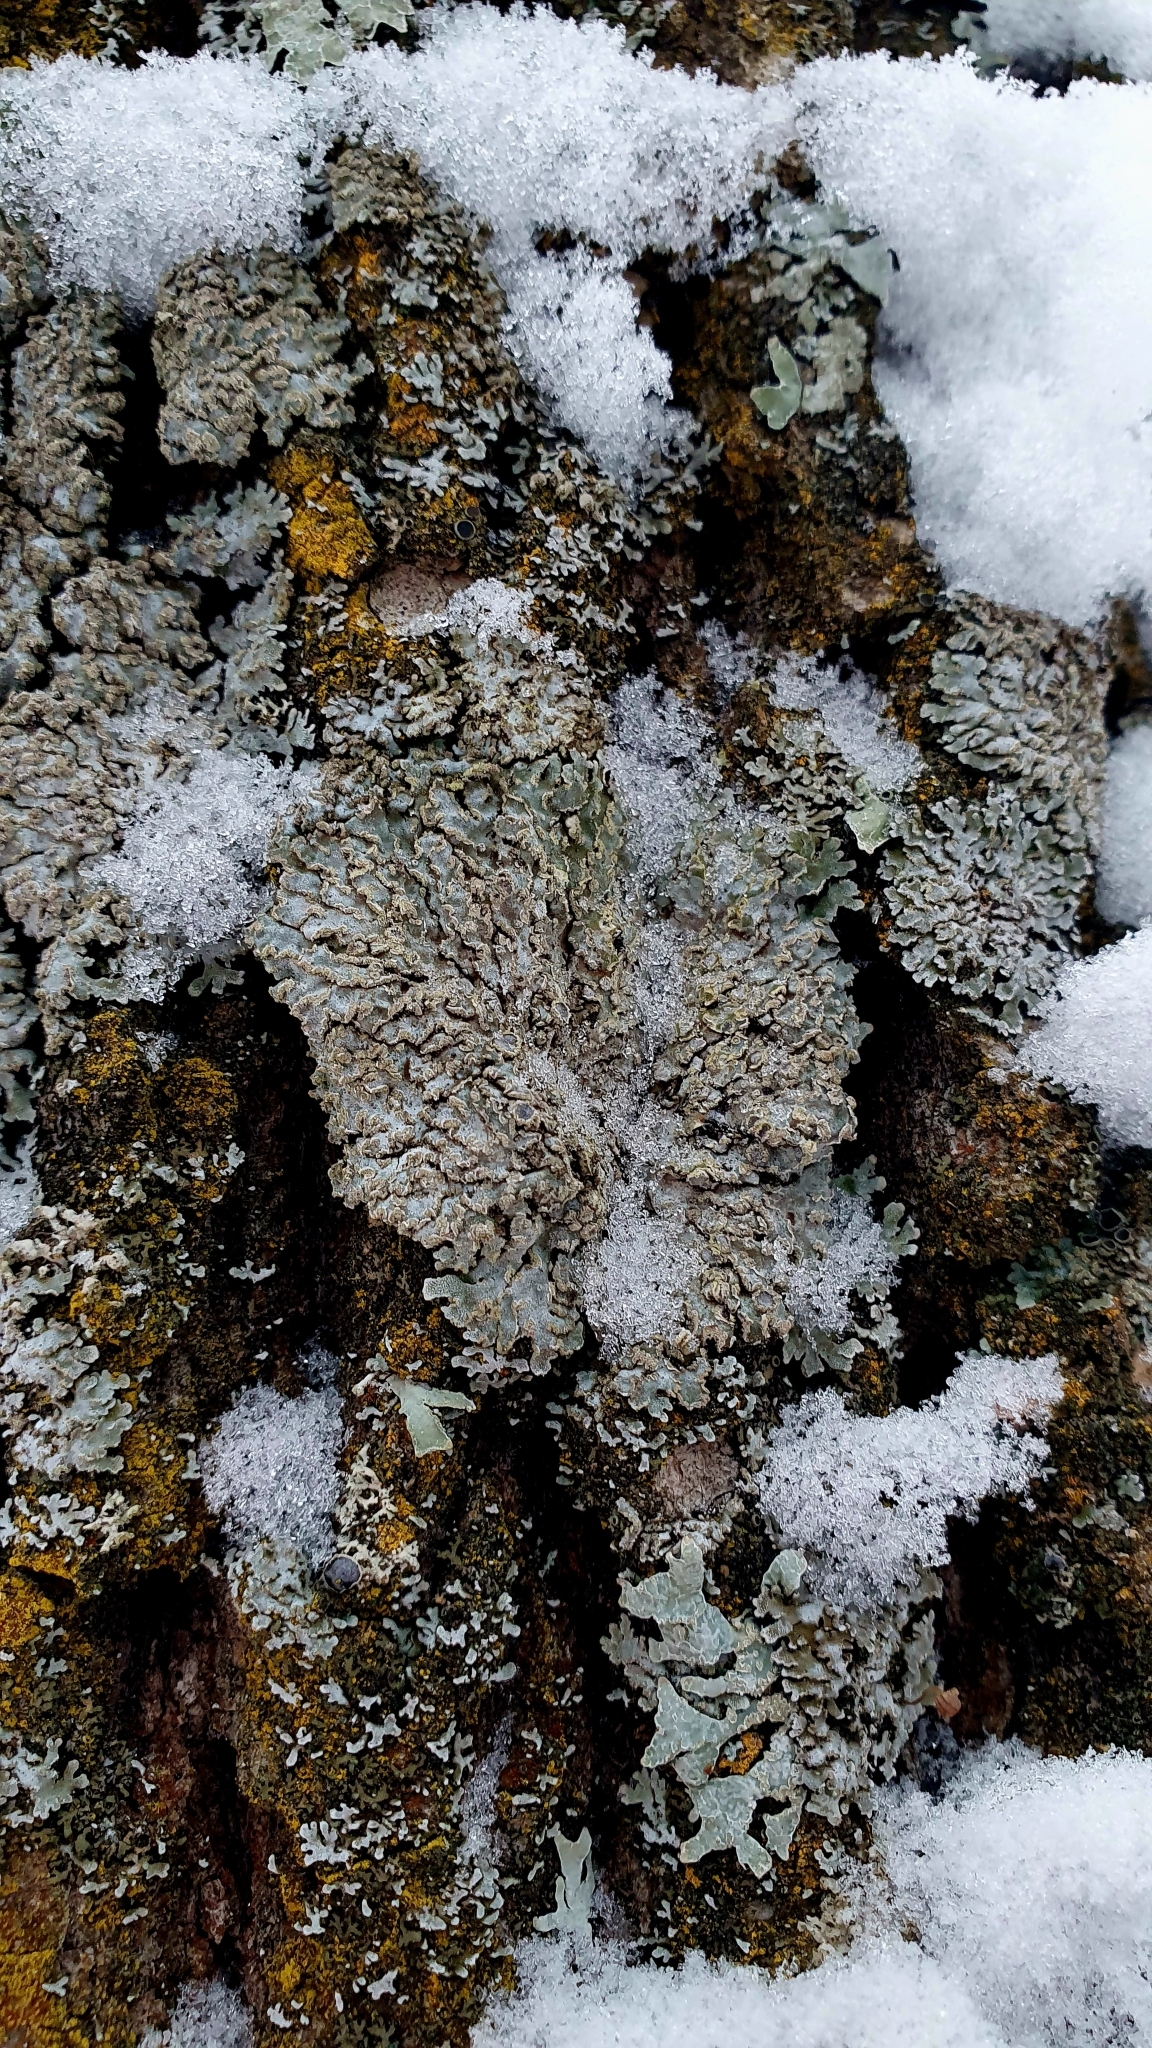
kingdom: Fungi
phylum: Ascomycota
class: Lecanoromycetes
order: Caliciales
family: Physciaceae
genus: Physconia
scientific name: Physconia enteroxantha
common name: Yellow-edged frost lichen
